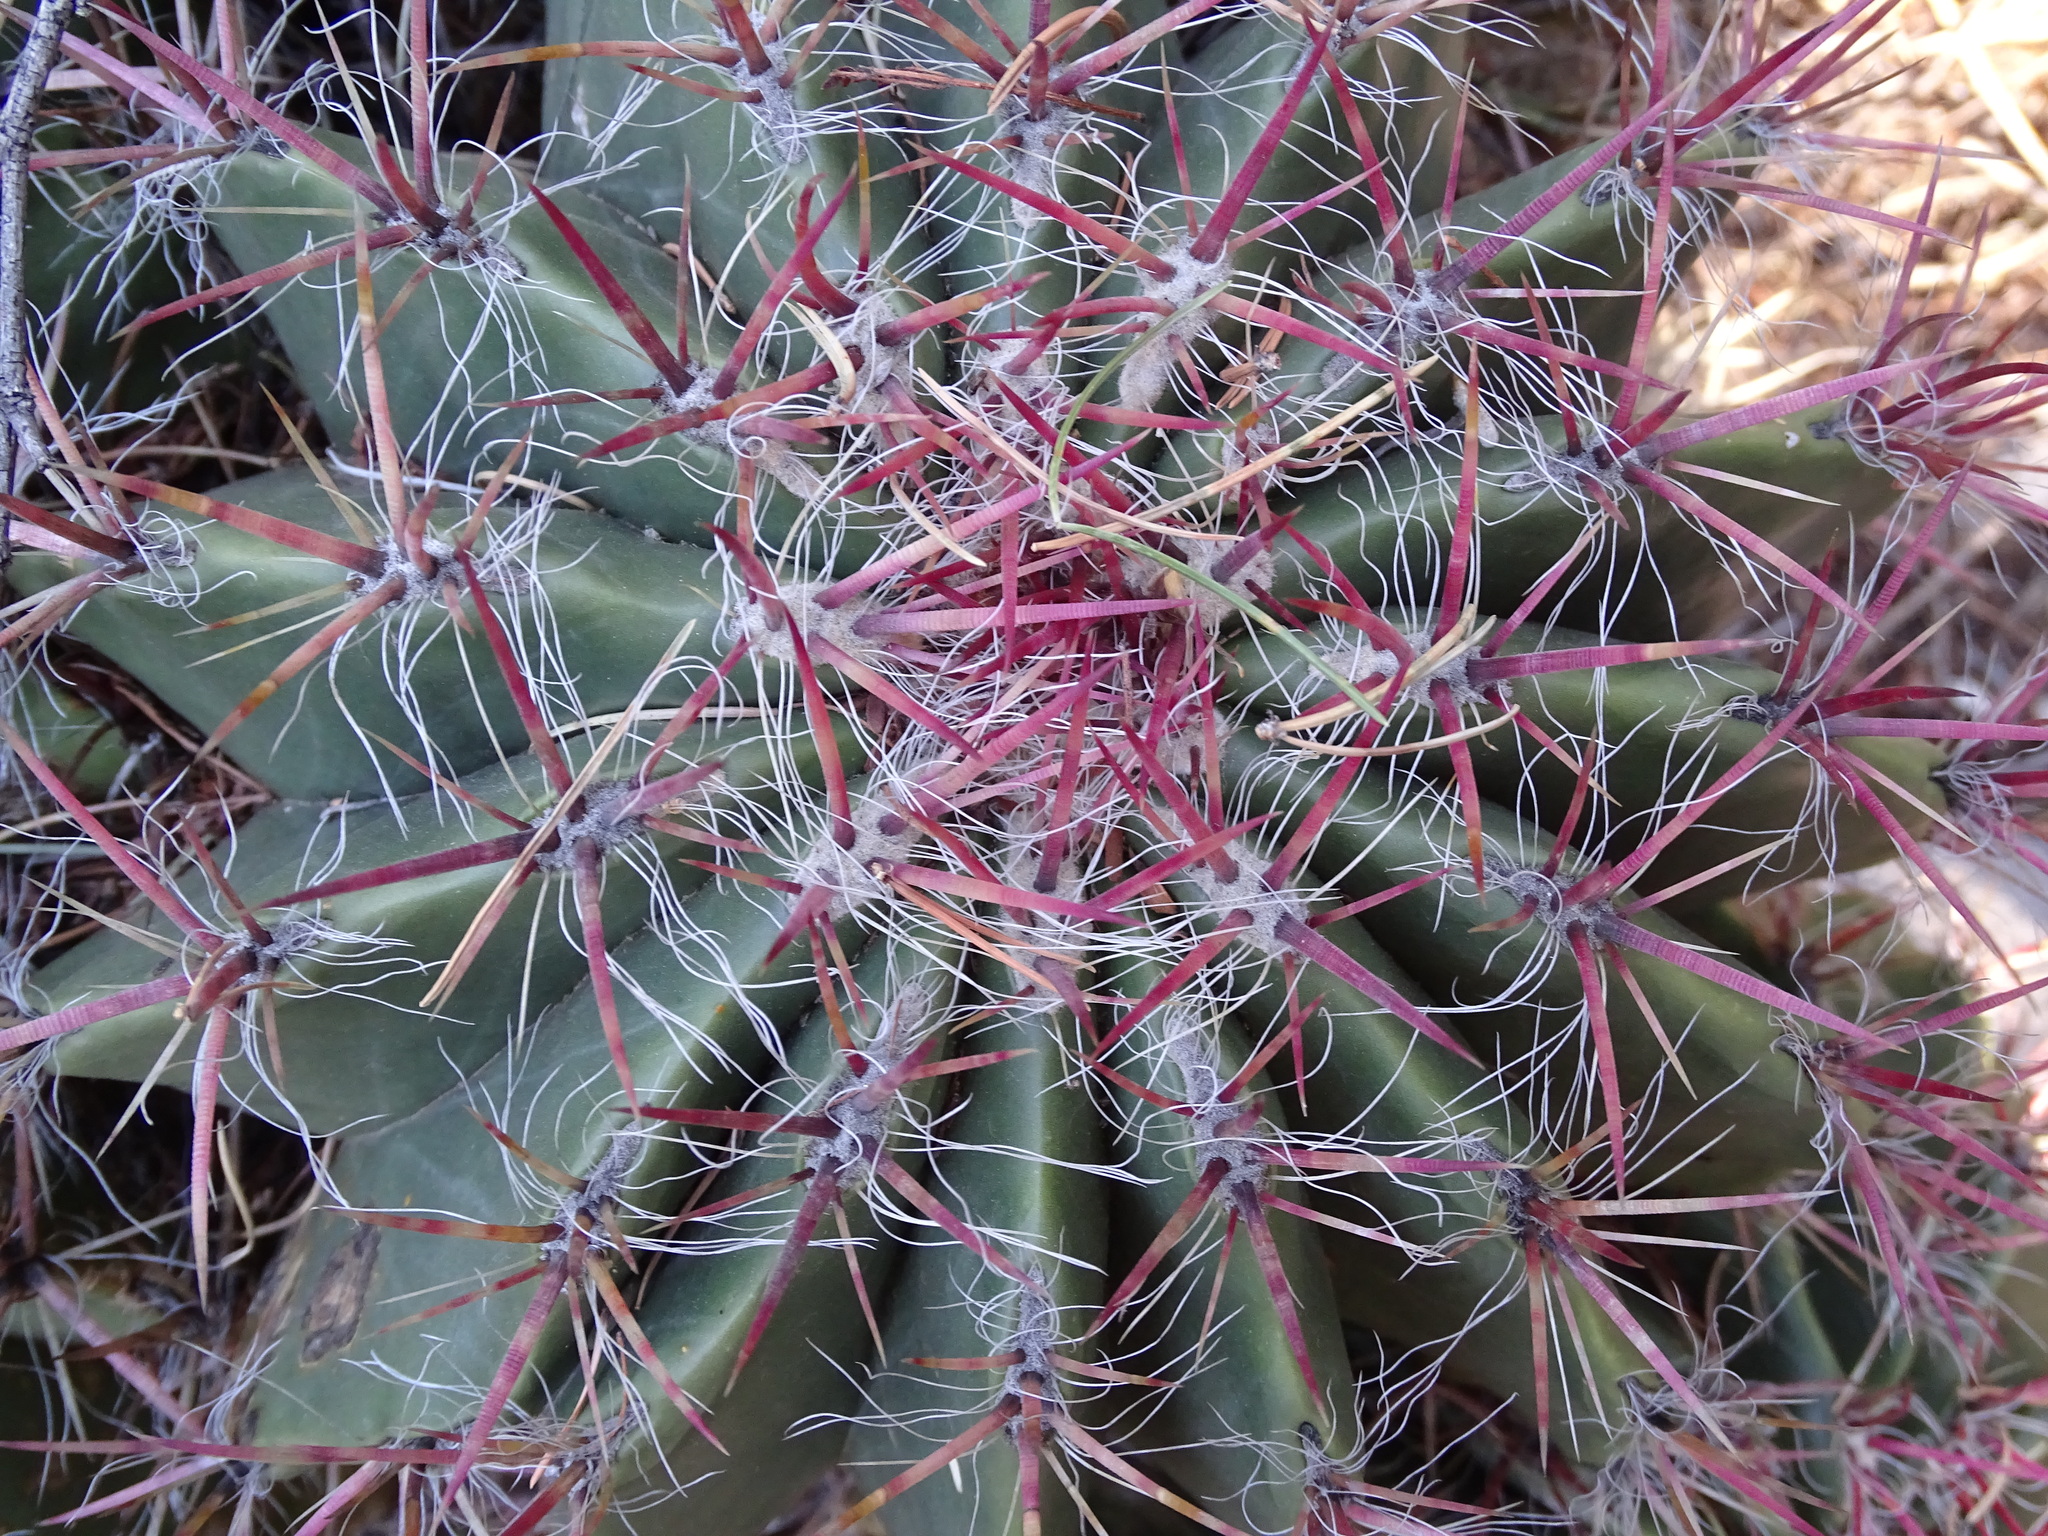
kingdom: Plantae
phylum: Tracheophyta
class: Magnoliopsida
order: Caryophyllales
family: Cactaceae
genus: Ferocactus
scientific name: Ferocactus pilosus
